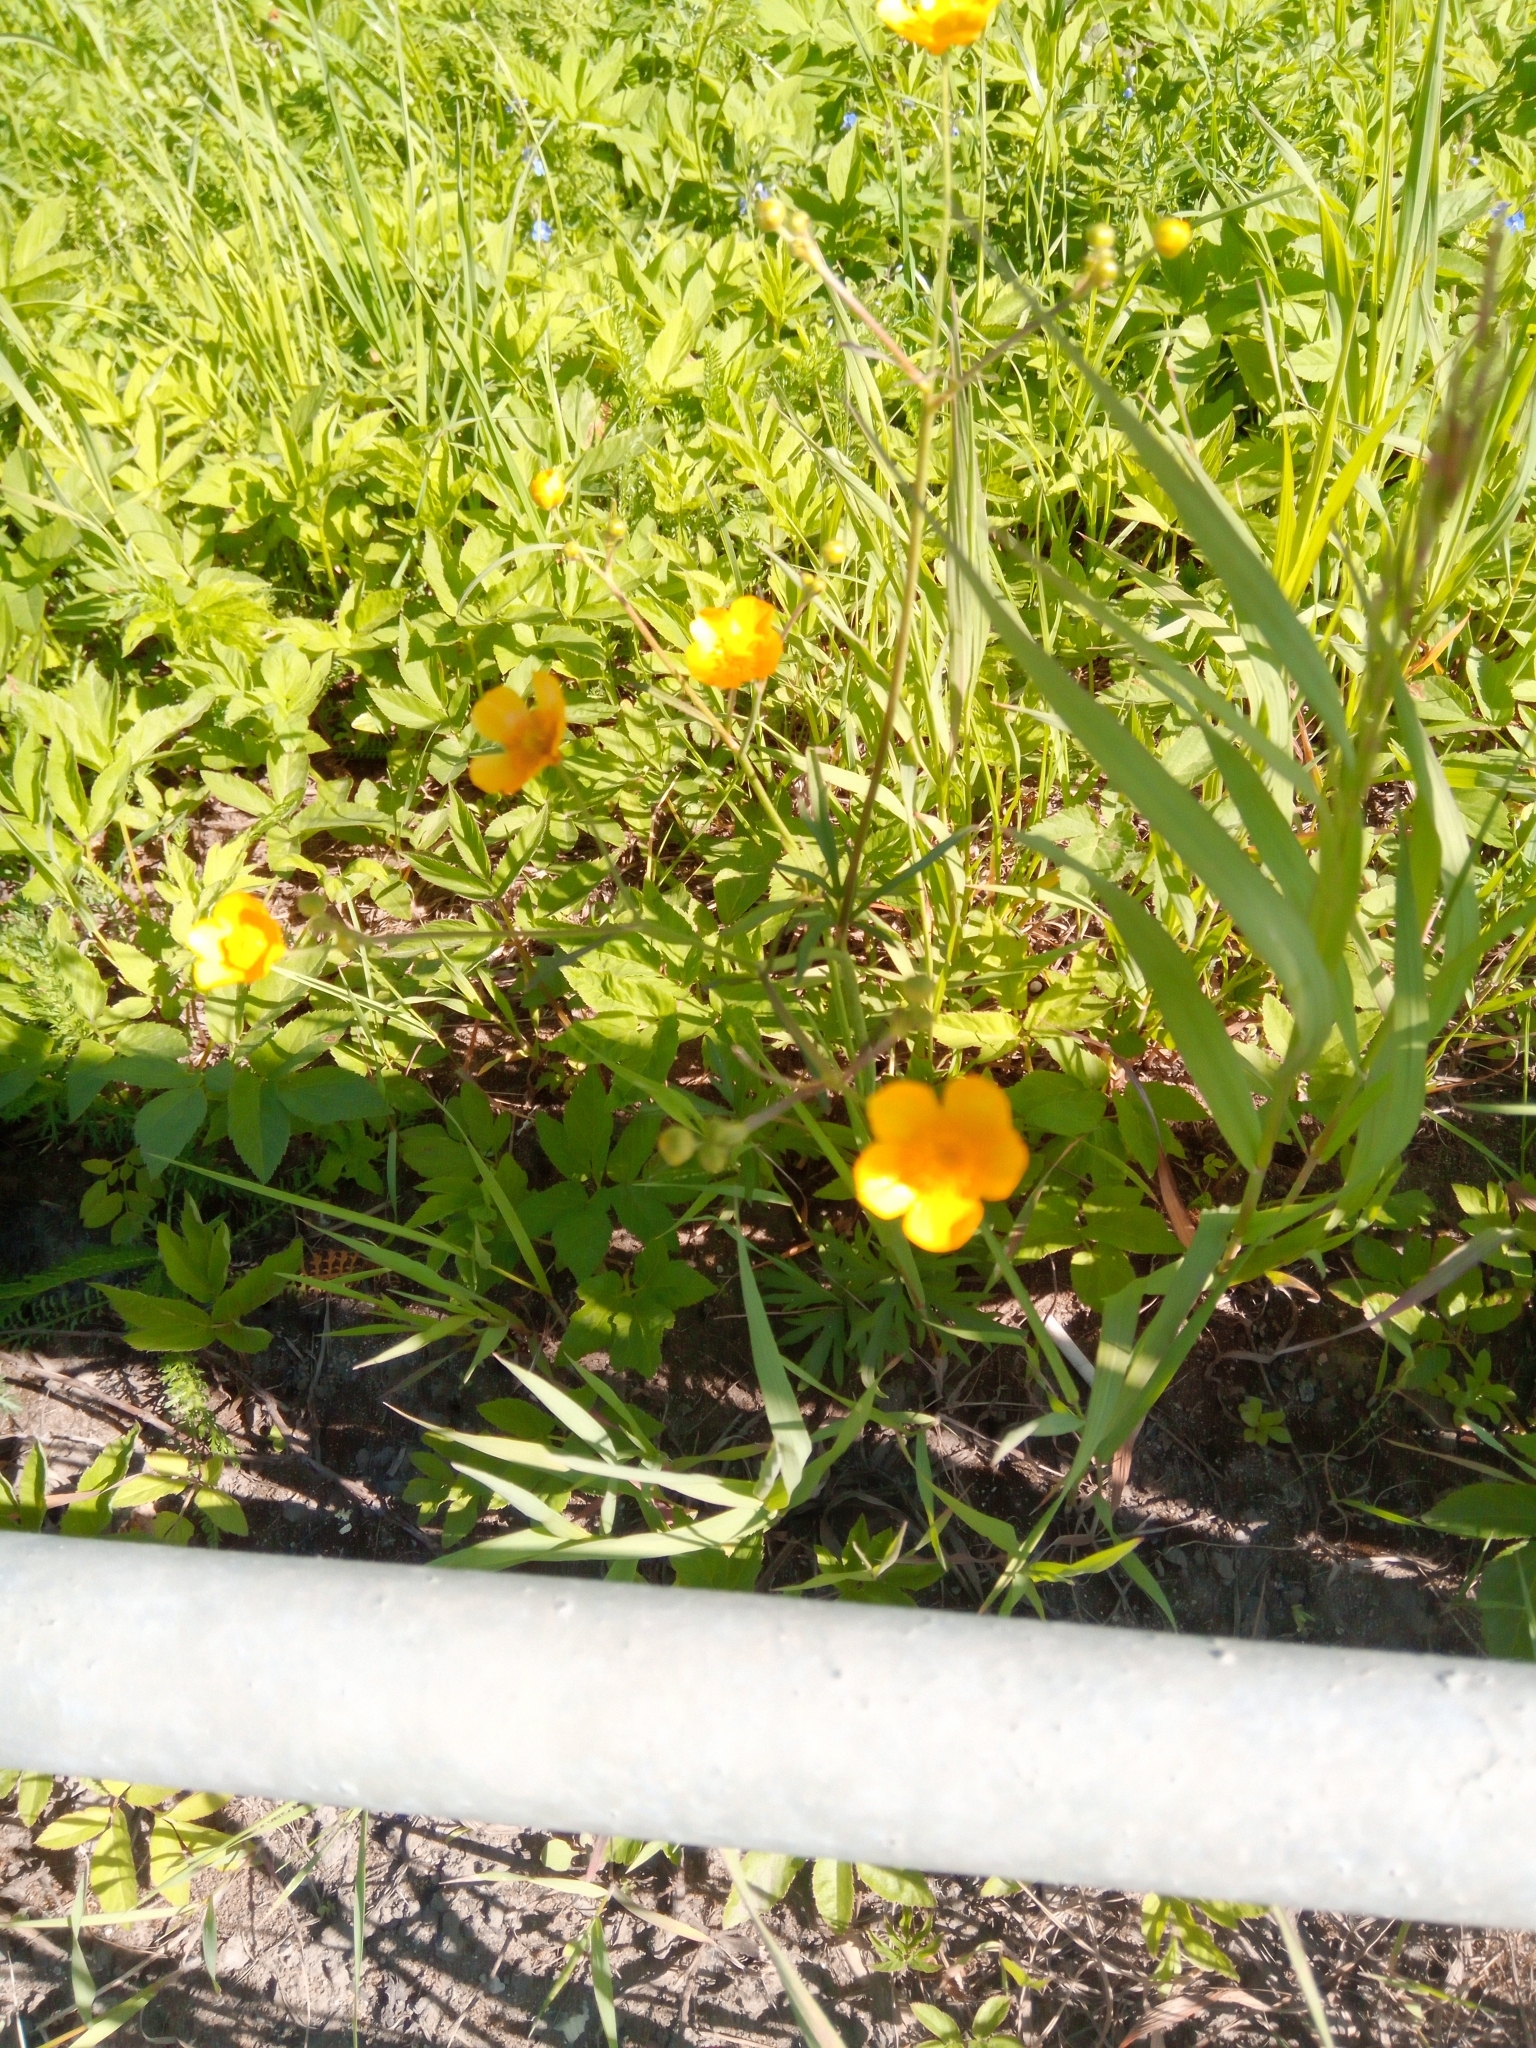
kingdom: Plantae
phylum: Tracheophyta
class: Magnoliopsida
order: Ranunculales
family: Ranunculaceae
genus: Ranunculus
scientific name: Ranunculus acris
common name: Meadow buttercup
